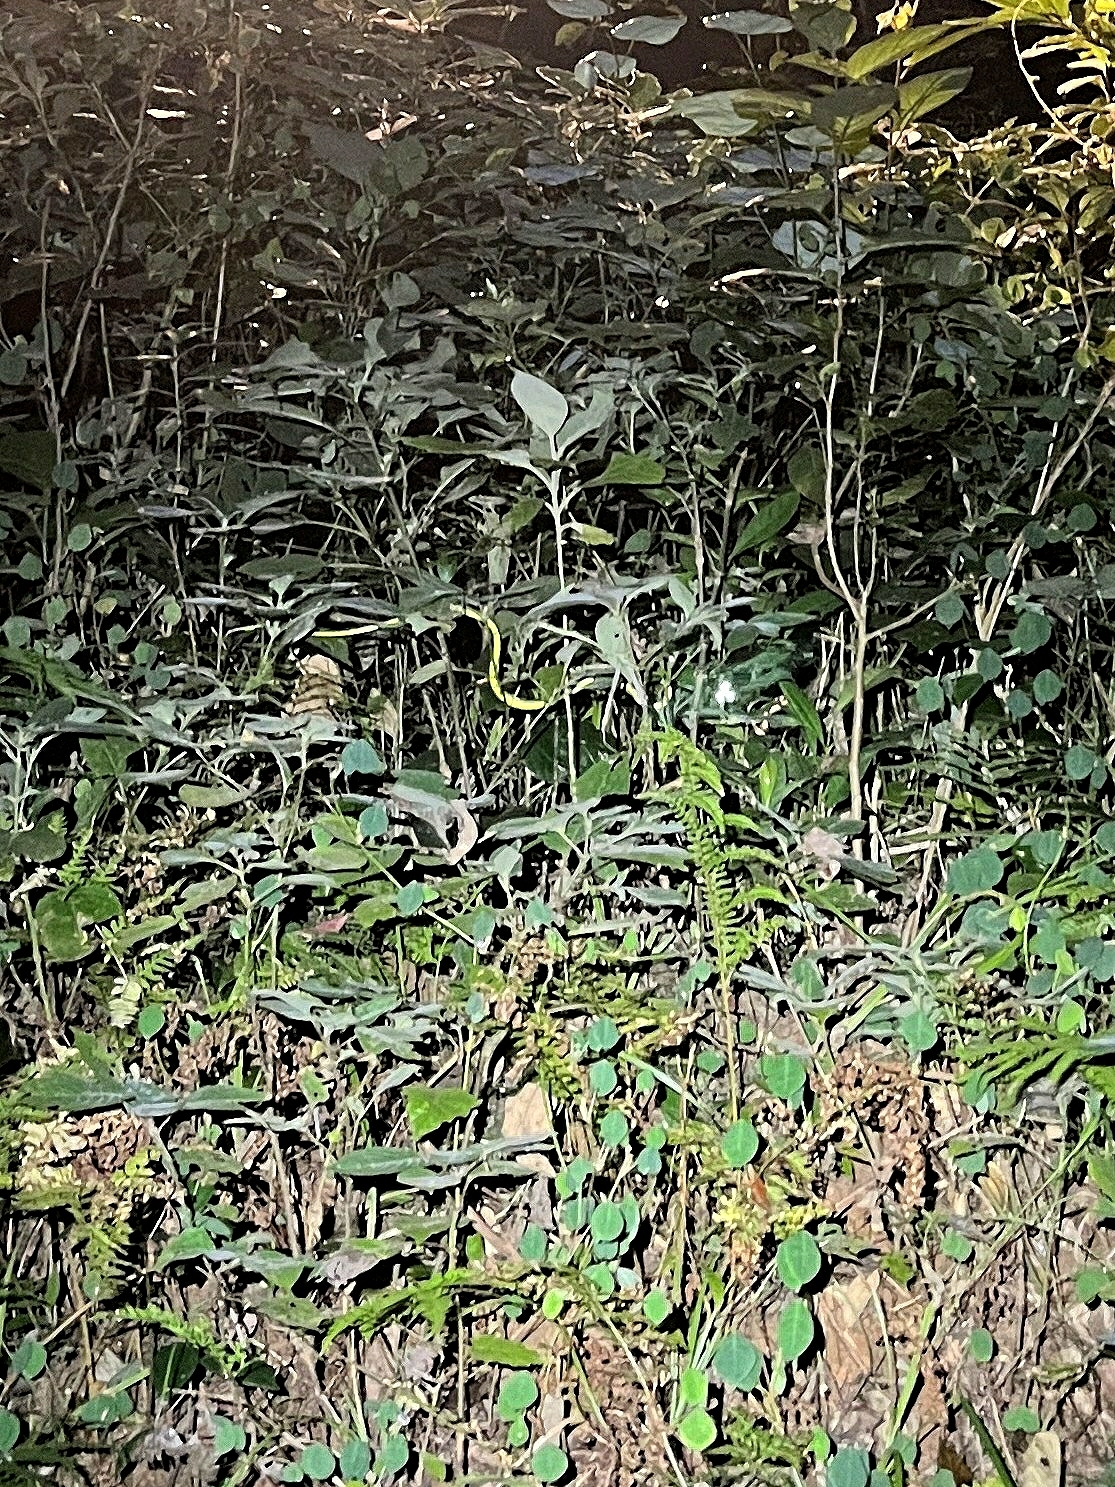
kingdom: Animalia
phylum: Chordata
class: Squamata
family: Colubridae
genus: Ahaetulla
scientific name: Ahaetulla farnsworthi
